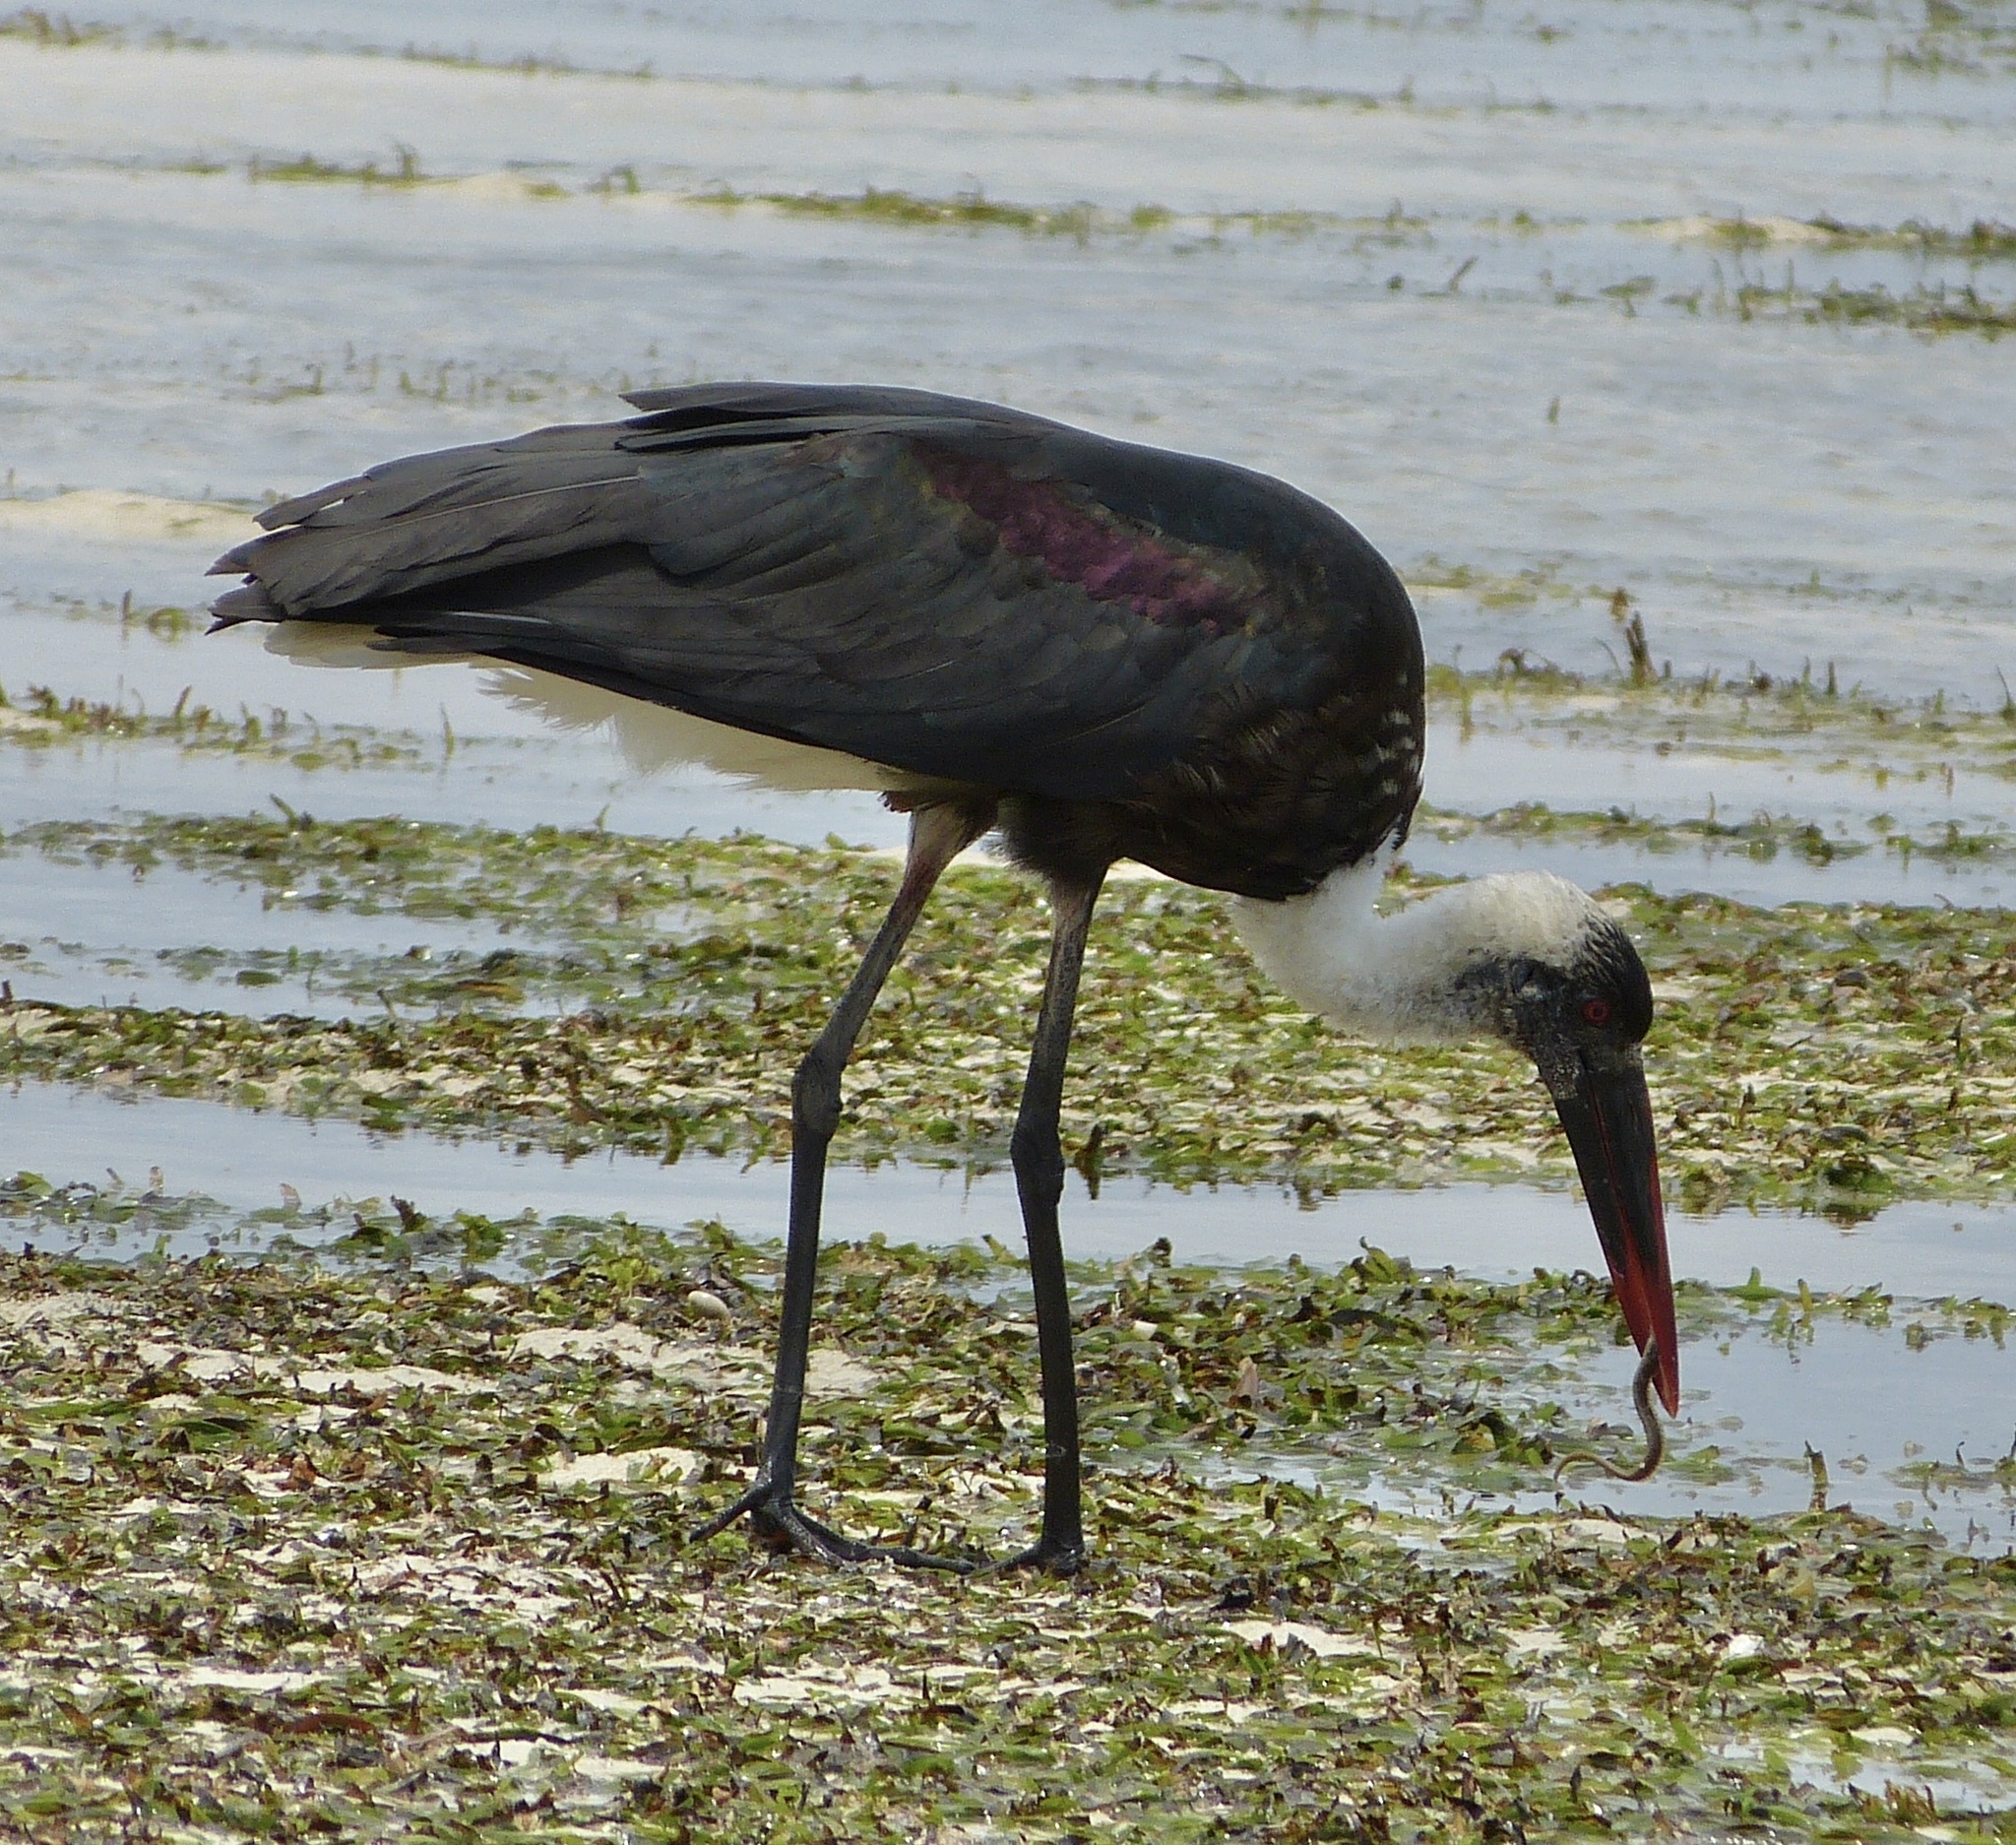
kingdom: Animalia
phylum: Chordata
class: Aves
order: Ciconiiformes
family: Ciconiidae
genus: Ciconia
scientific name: Ciconia microscelis
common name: African woollyneck
